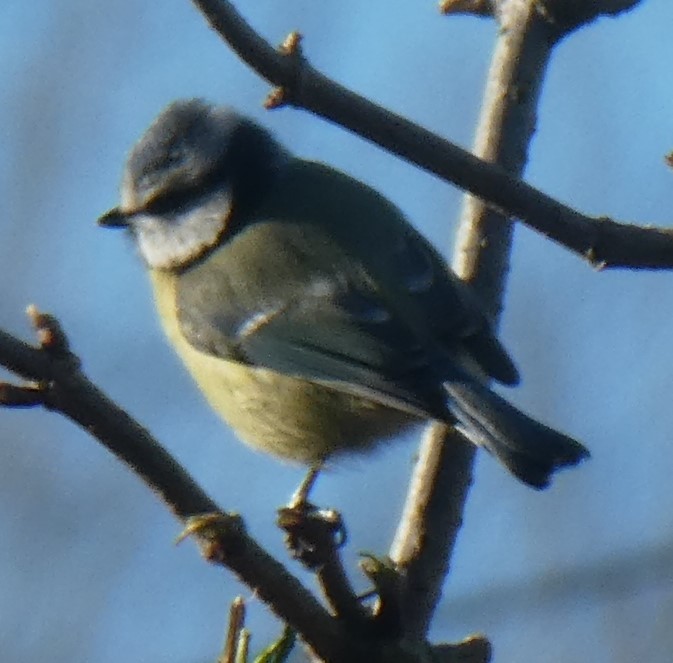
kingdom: Animalia
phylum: Chordata
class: Aves
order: Passeriformes
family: Paridae
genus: Cyanistes
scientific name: Cyanistes caeruleus
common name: Eurasian blue tit
